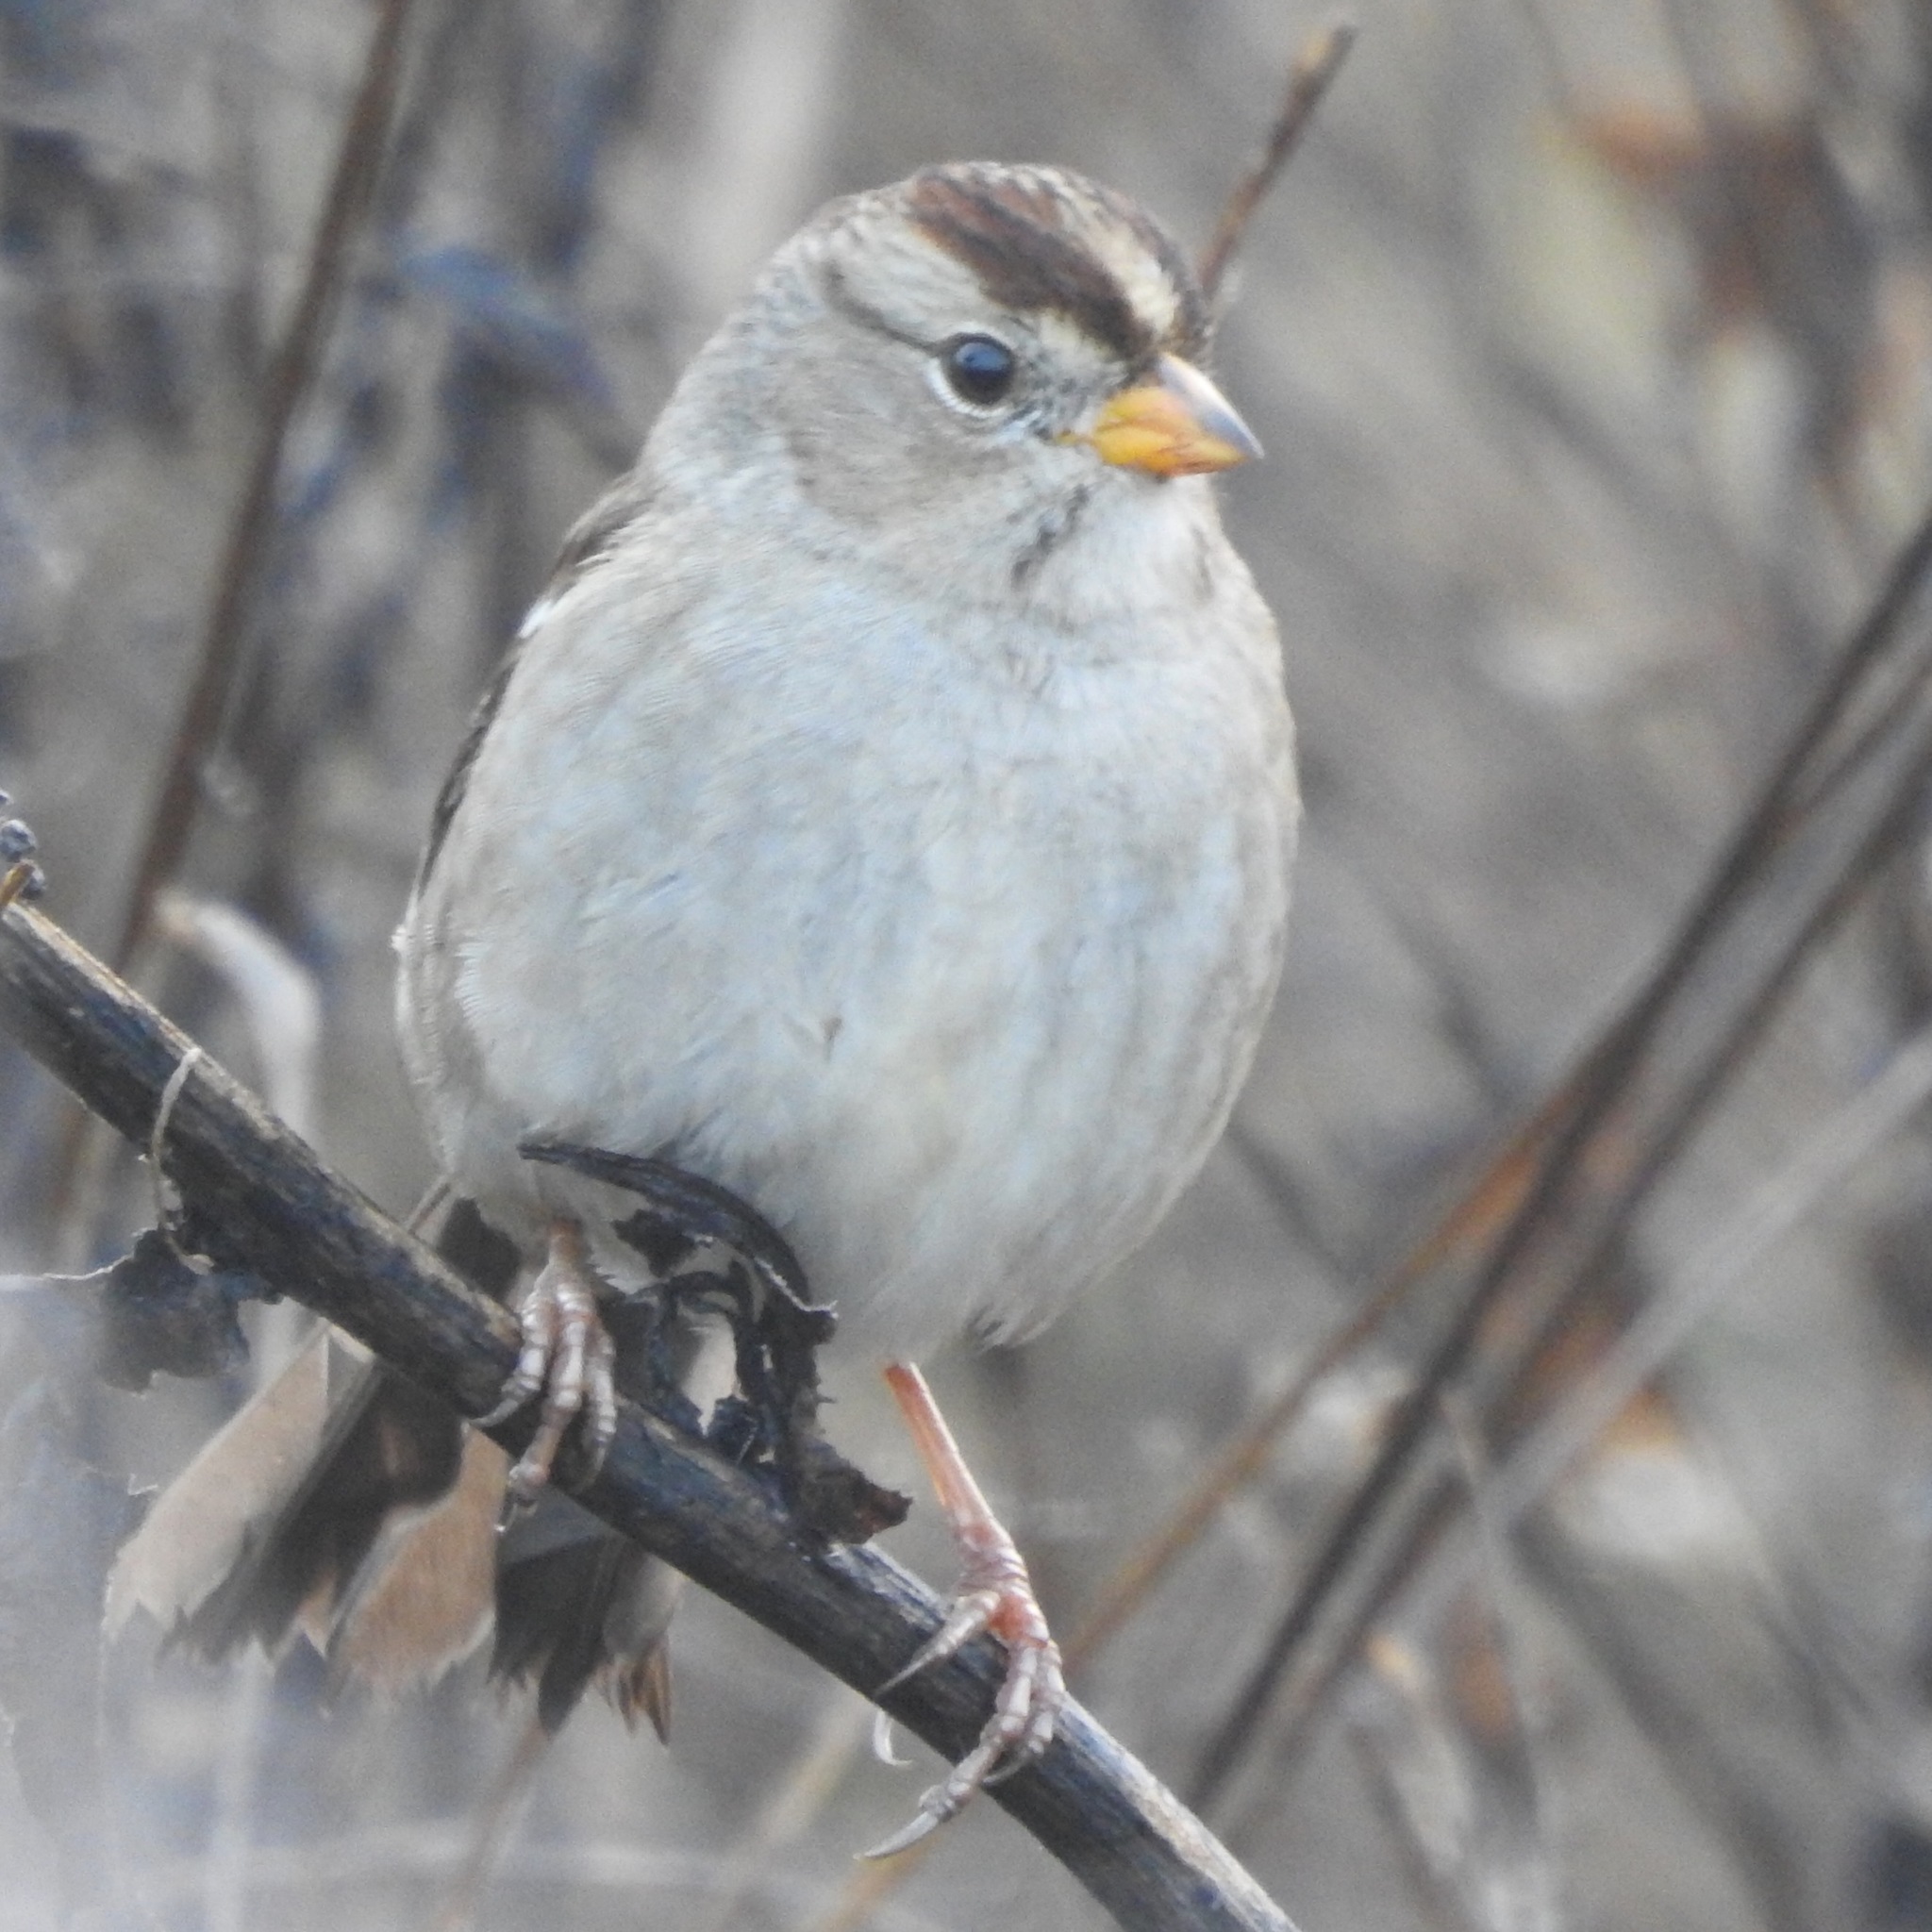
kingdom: Animalia
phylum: Chordata
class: Aves
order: Passeriformes
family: Passerellidae
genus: Zonotrichia
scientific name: Zonotrichia leucophrys
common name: White-crowned sparrow
